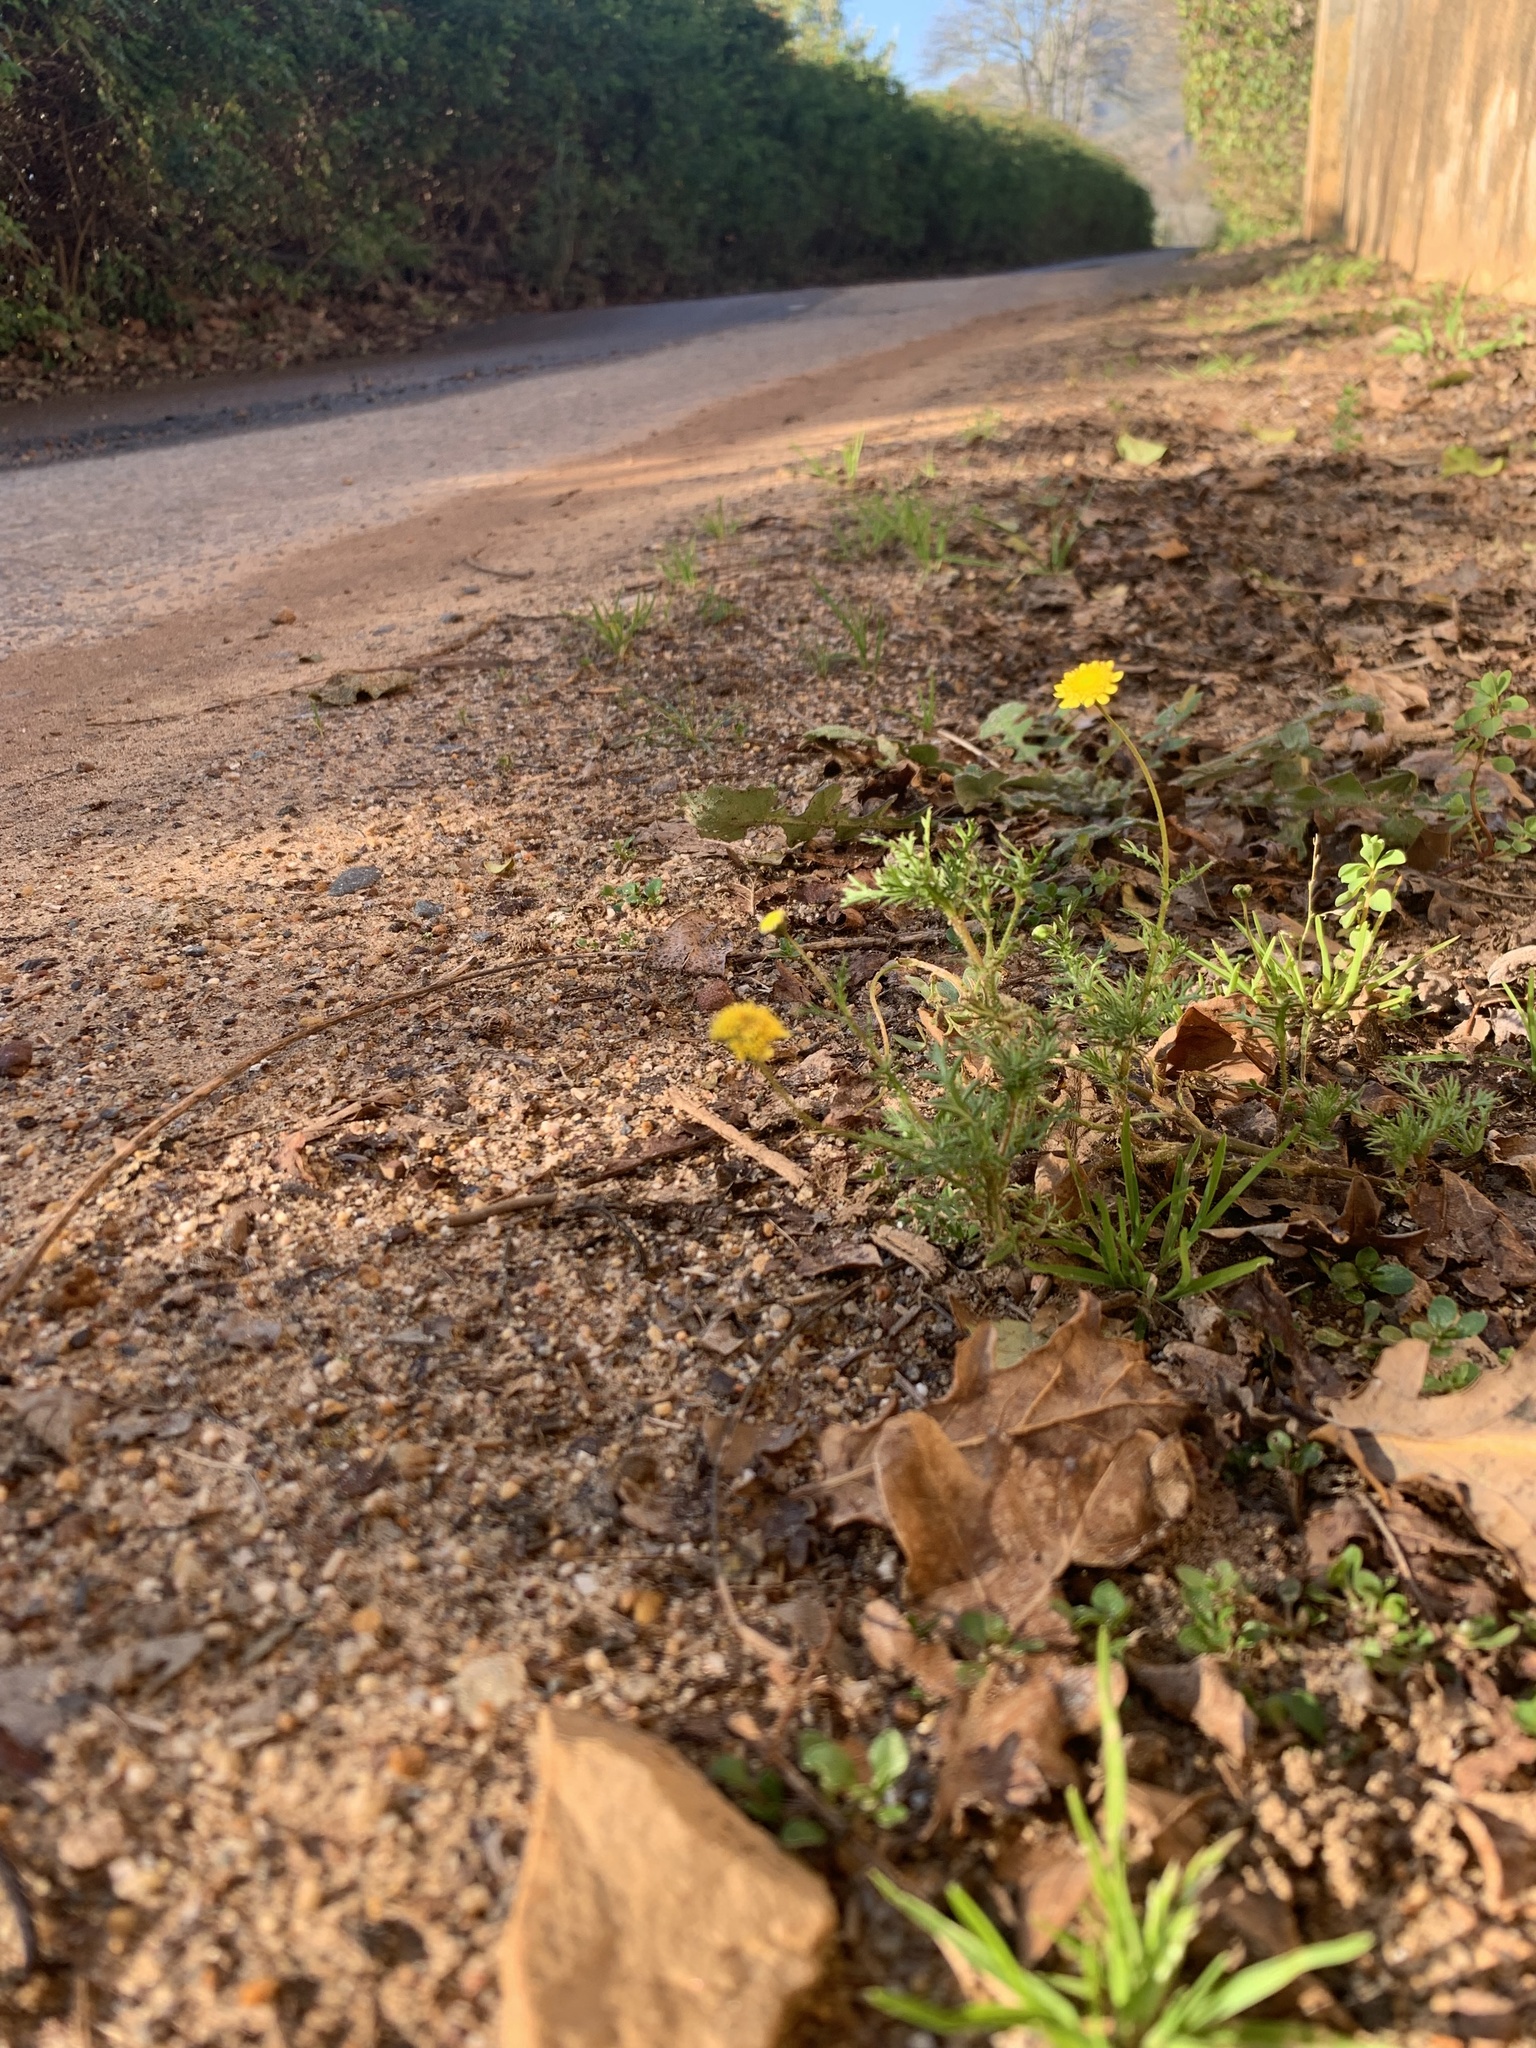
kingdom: Plantae
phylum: Tracheophyta
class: Magnoliopsida
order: Asterales
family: Asteraceae
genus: Cotula
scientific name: Cotula pruinosa
